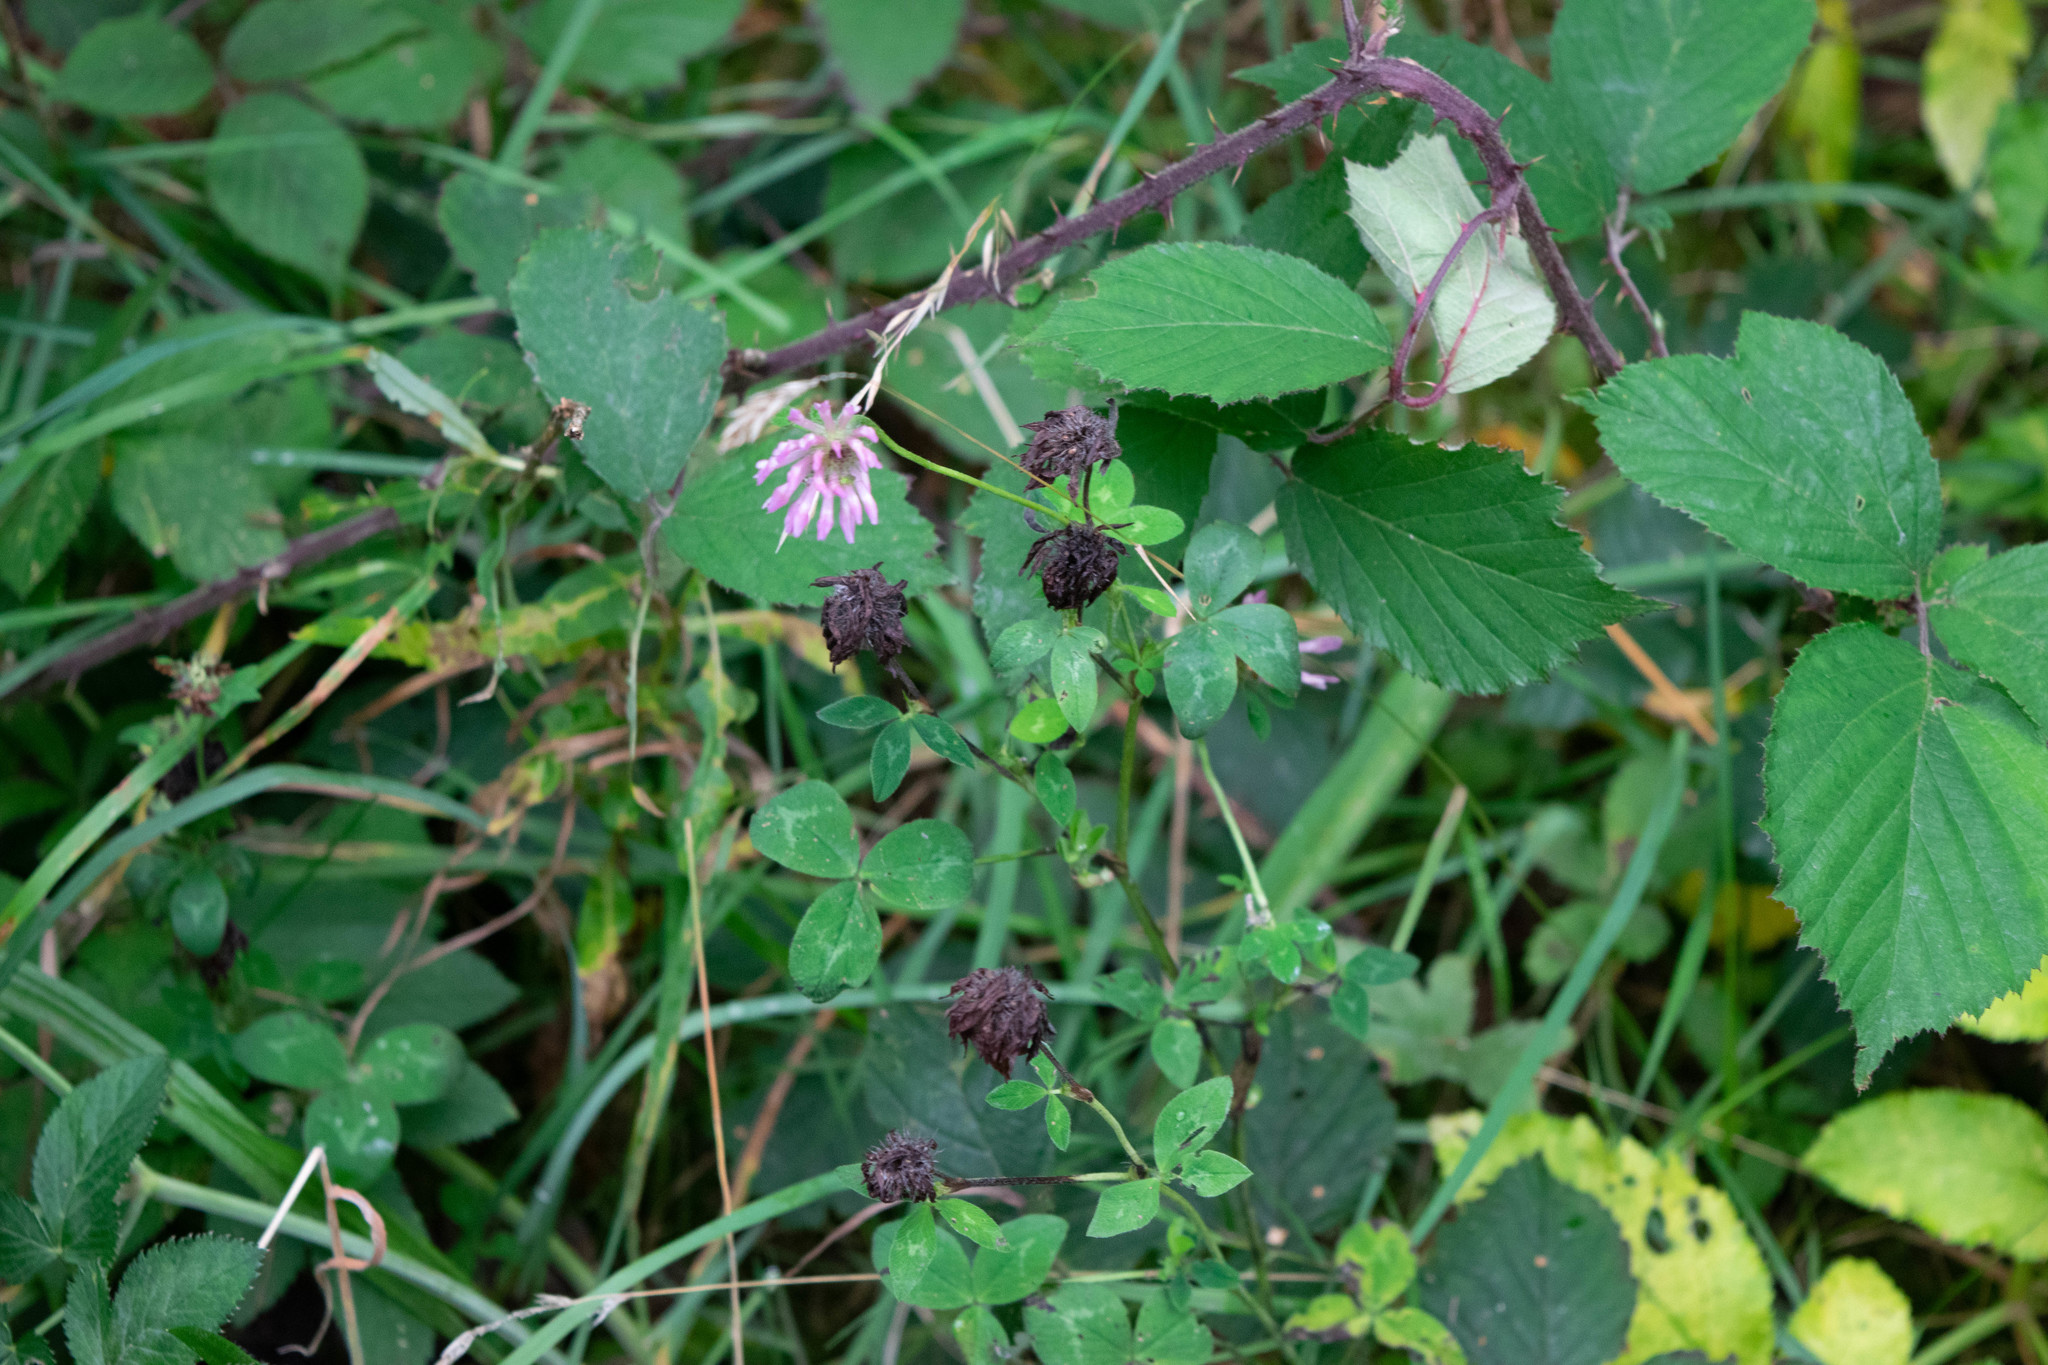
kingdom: Plantae
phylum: Tracheophyta
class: Magnoliopsida
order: Fabales
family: Fabaceae
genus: Trifolium
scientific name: Trifolium pratense
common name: Red clover
